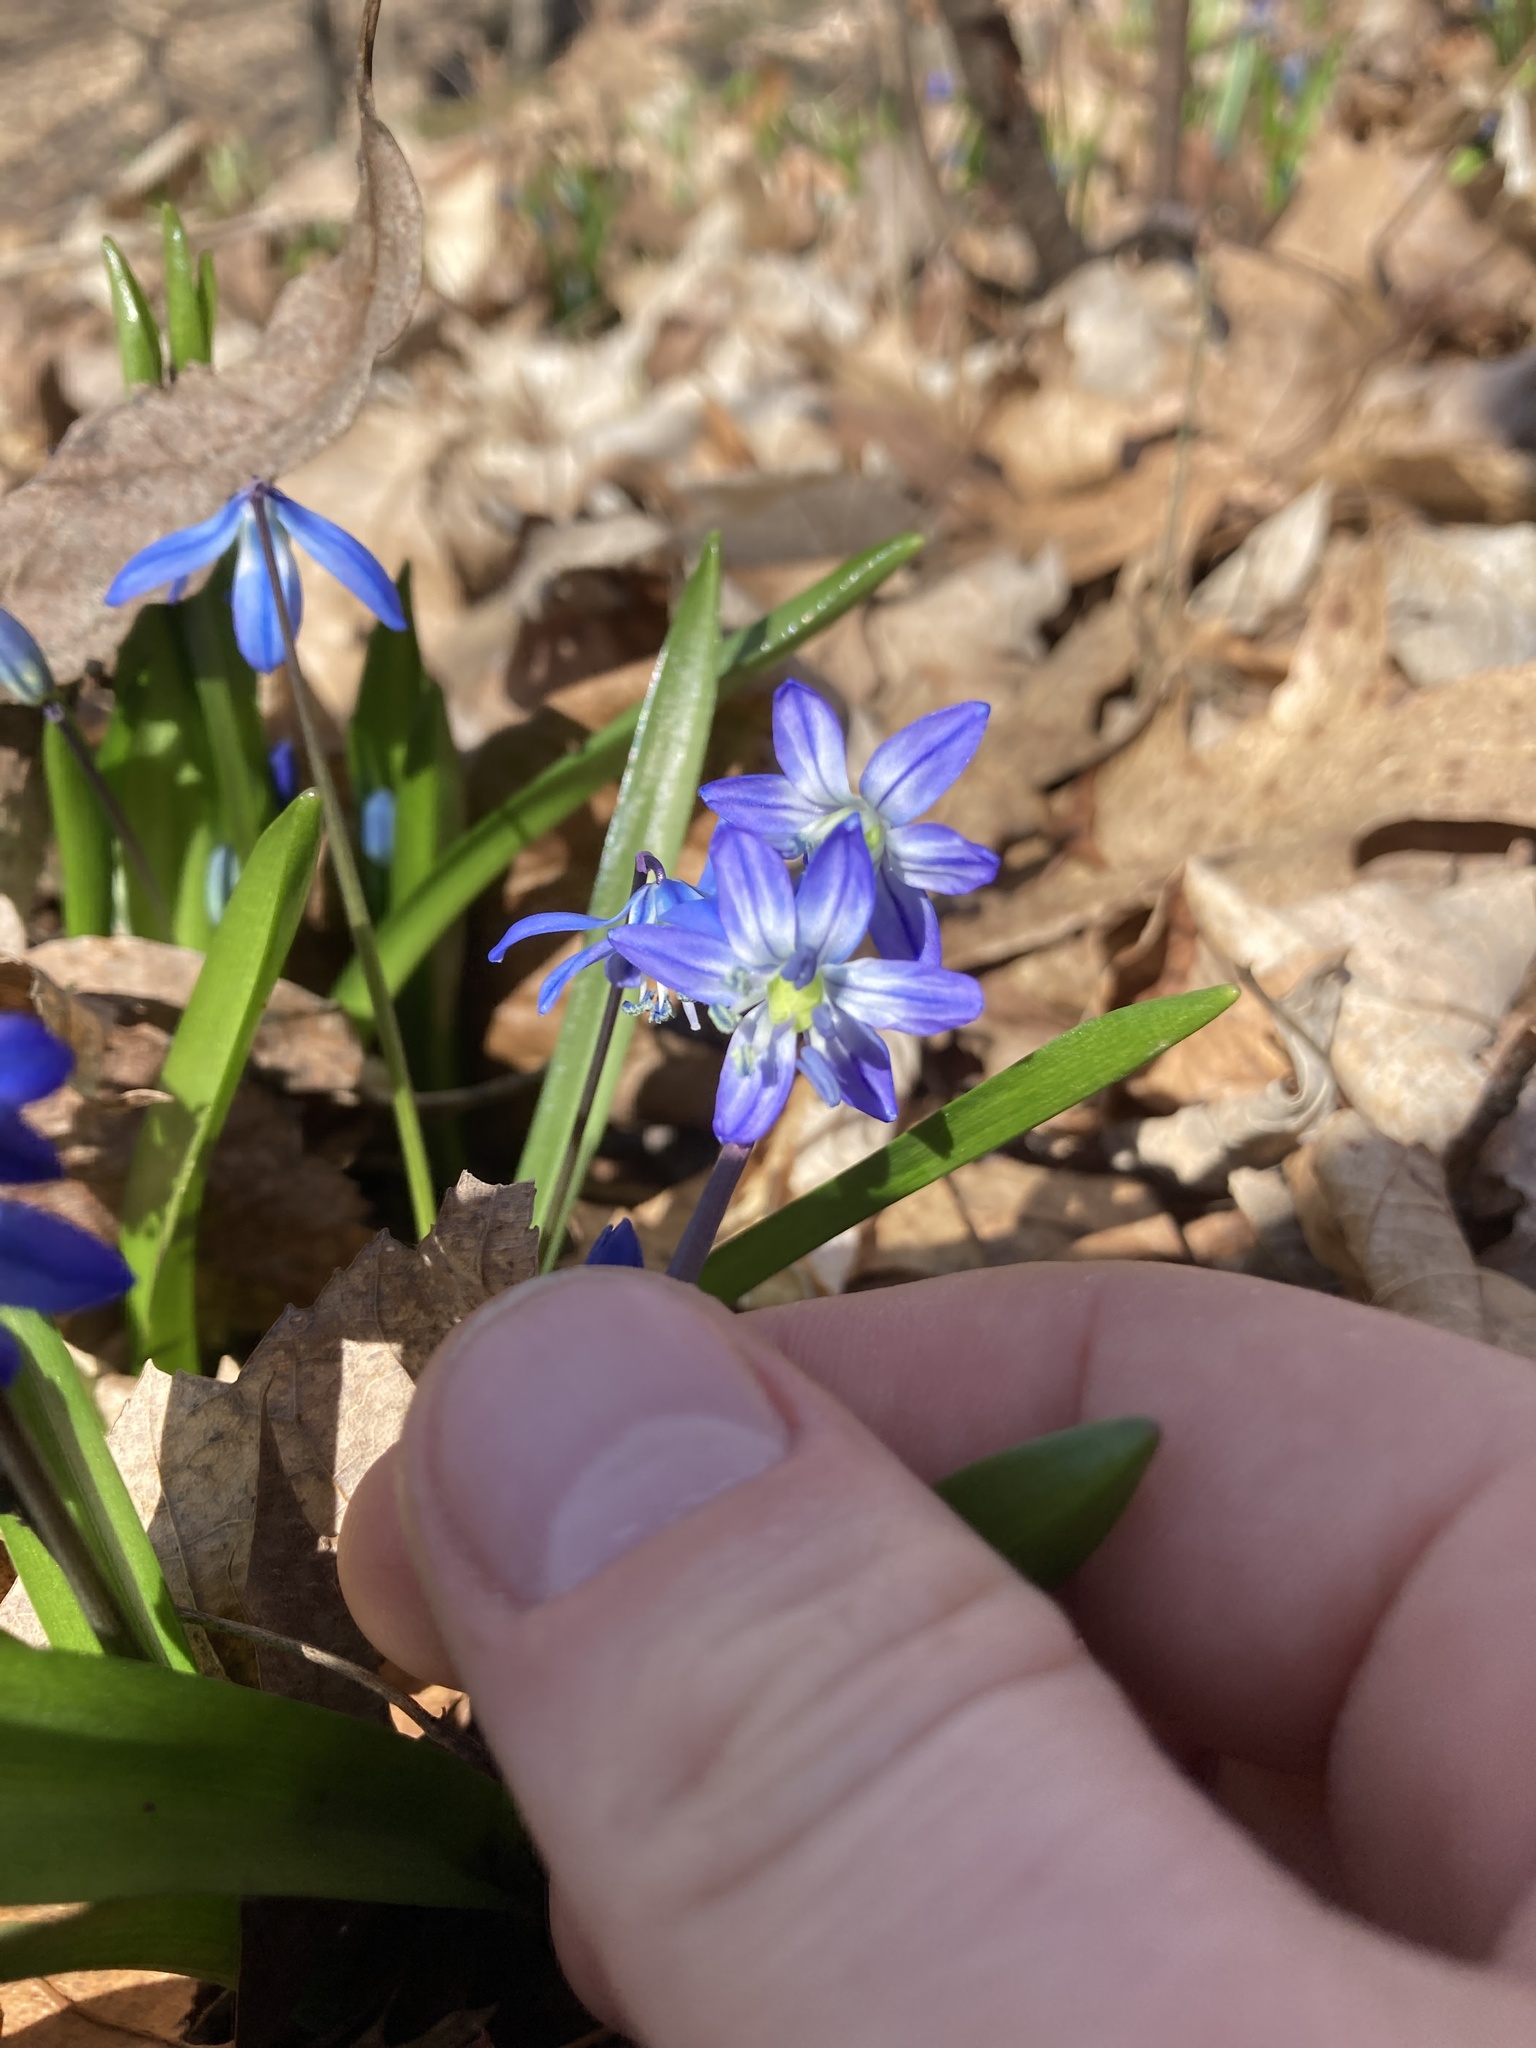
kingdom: Plantae
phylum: Tracheophyta
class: Liliopsida
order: Asparagales
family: Asparagaceae
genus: Scilla
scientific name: Scilla siberica
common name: Siberian squill
